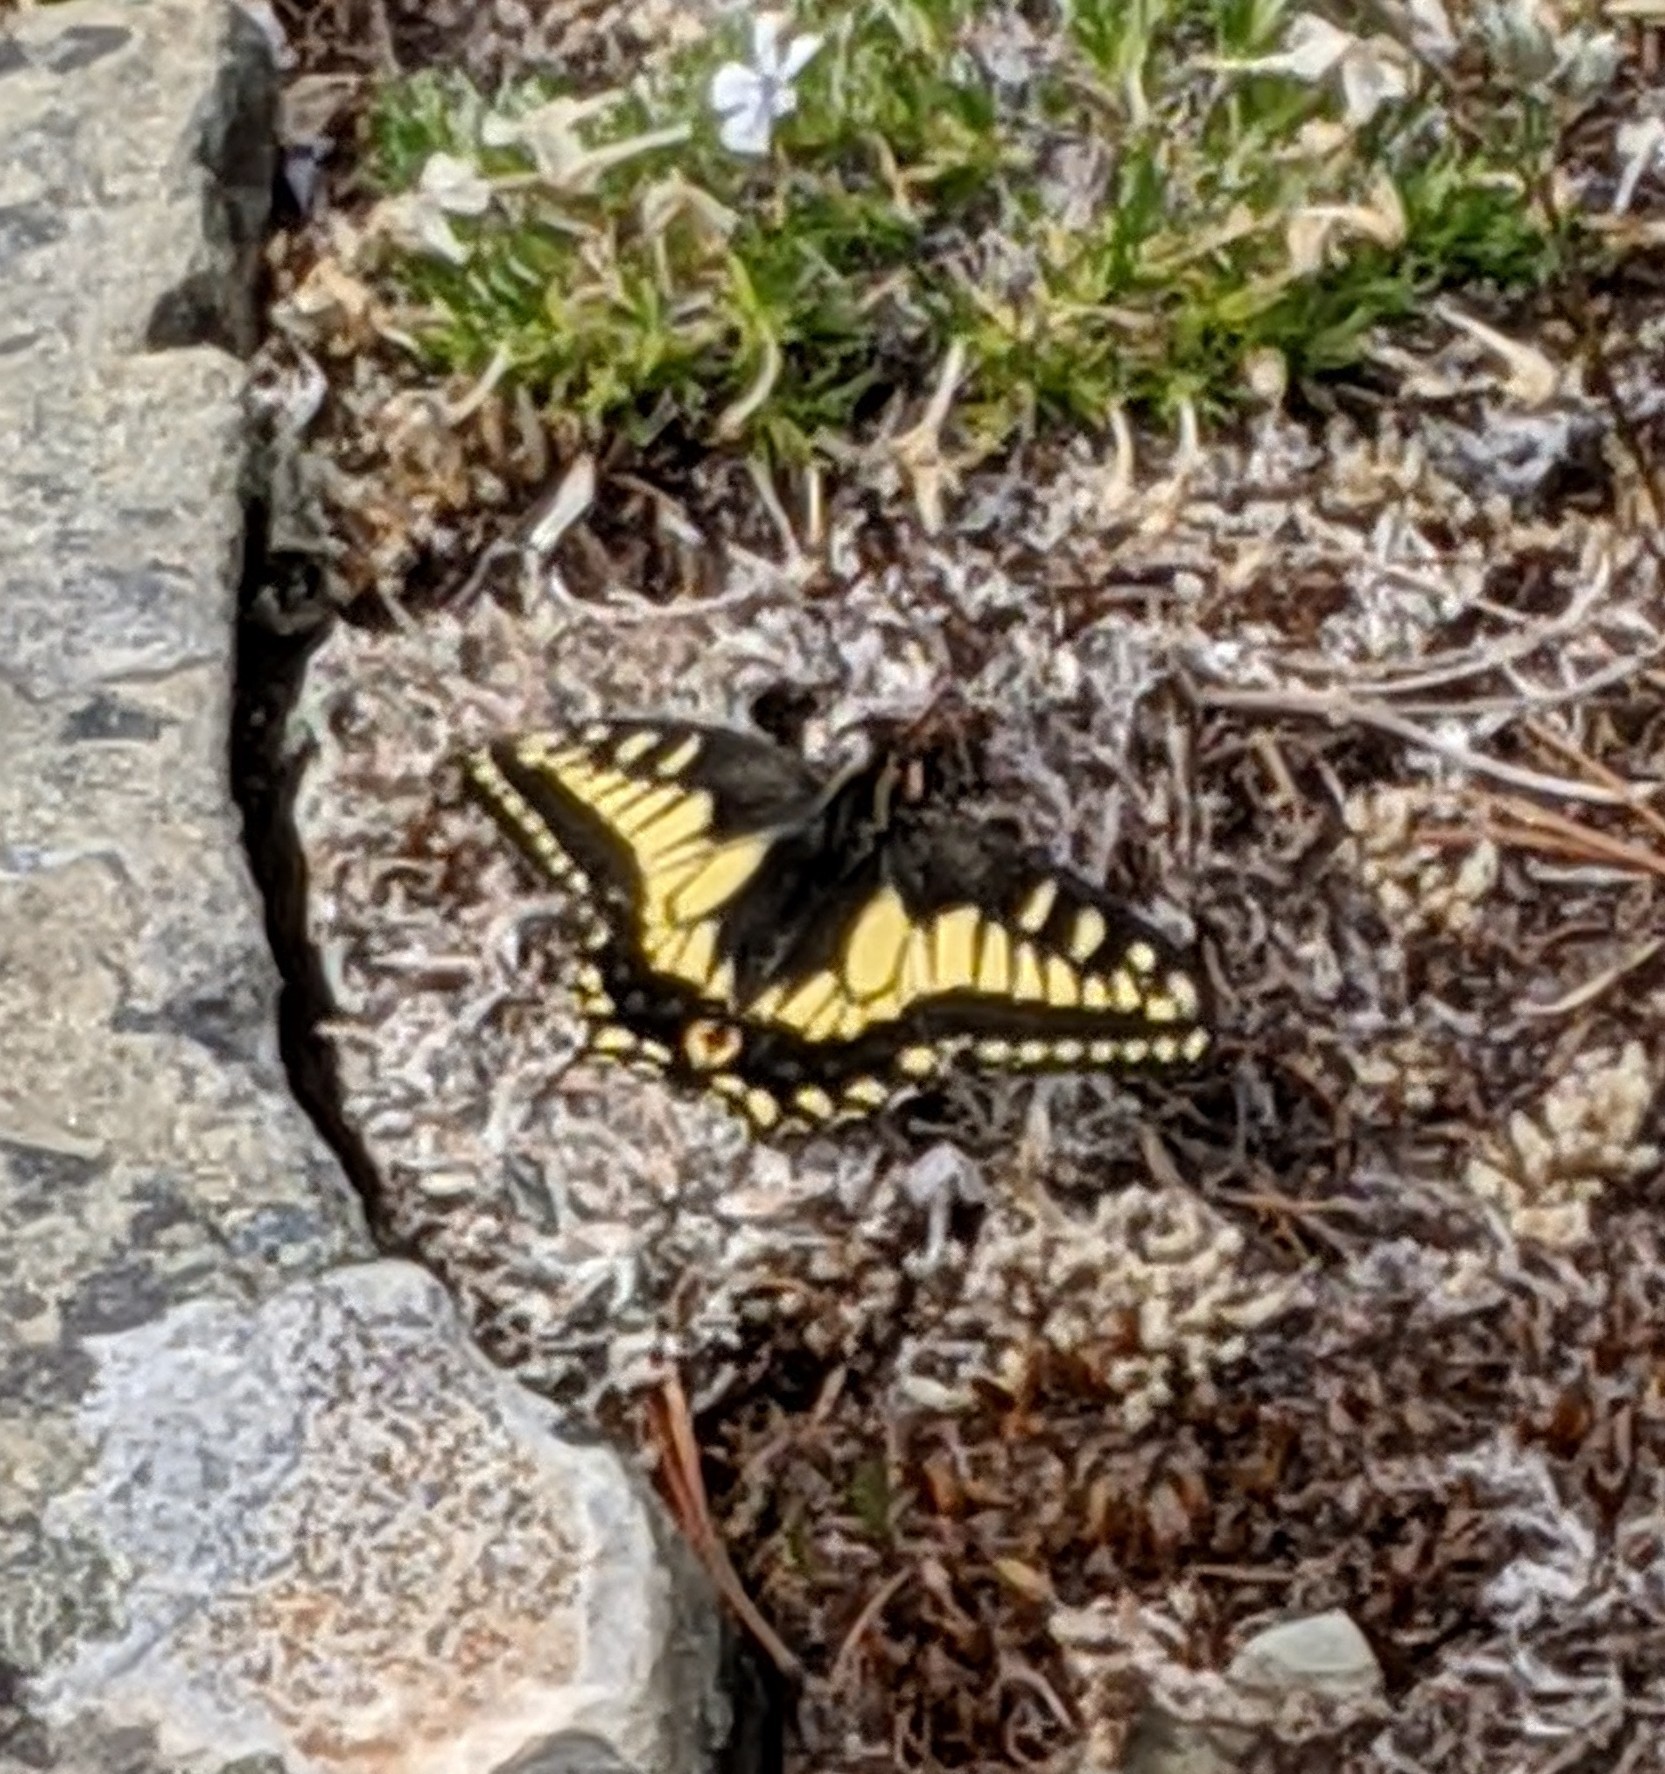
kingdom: Animalia
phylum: Arthropoda
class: Insecta
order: Lepidoptera
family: Papilionidae
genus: Papilio
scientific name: Papilio zelicaon
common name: Anise swallowtail
